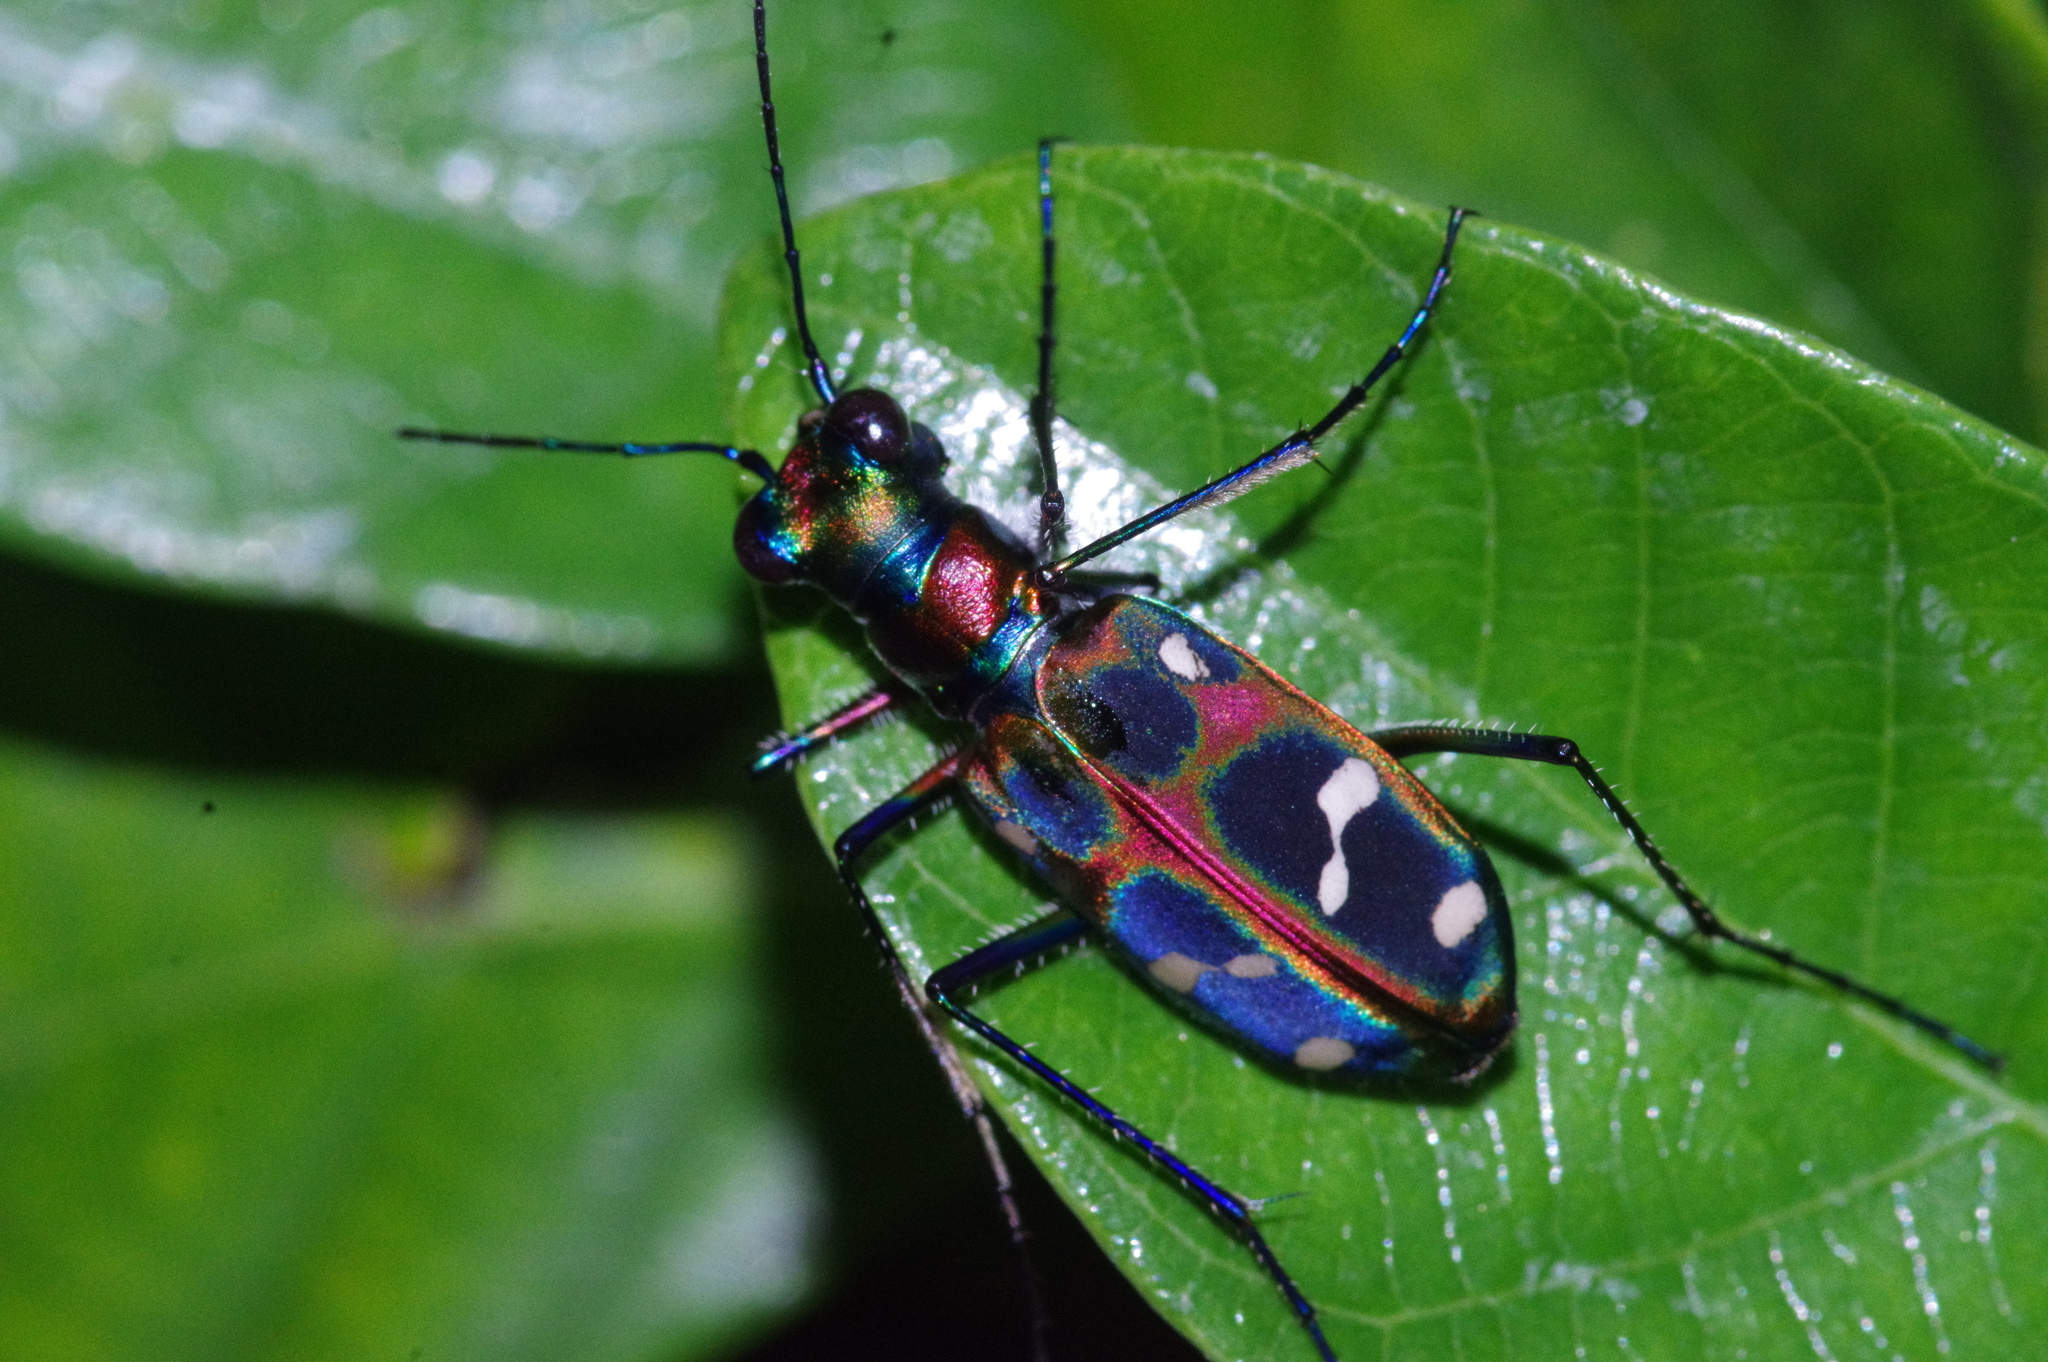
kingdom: Animalia
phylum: Arthropoda
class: Insecta
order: Coleoptera
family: Carabidae
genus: Cicindela
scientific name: Cicindela chinensis
